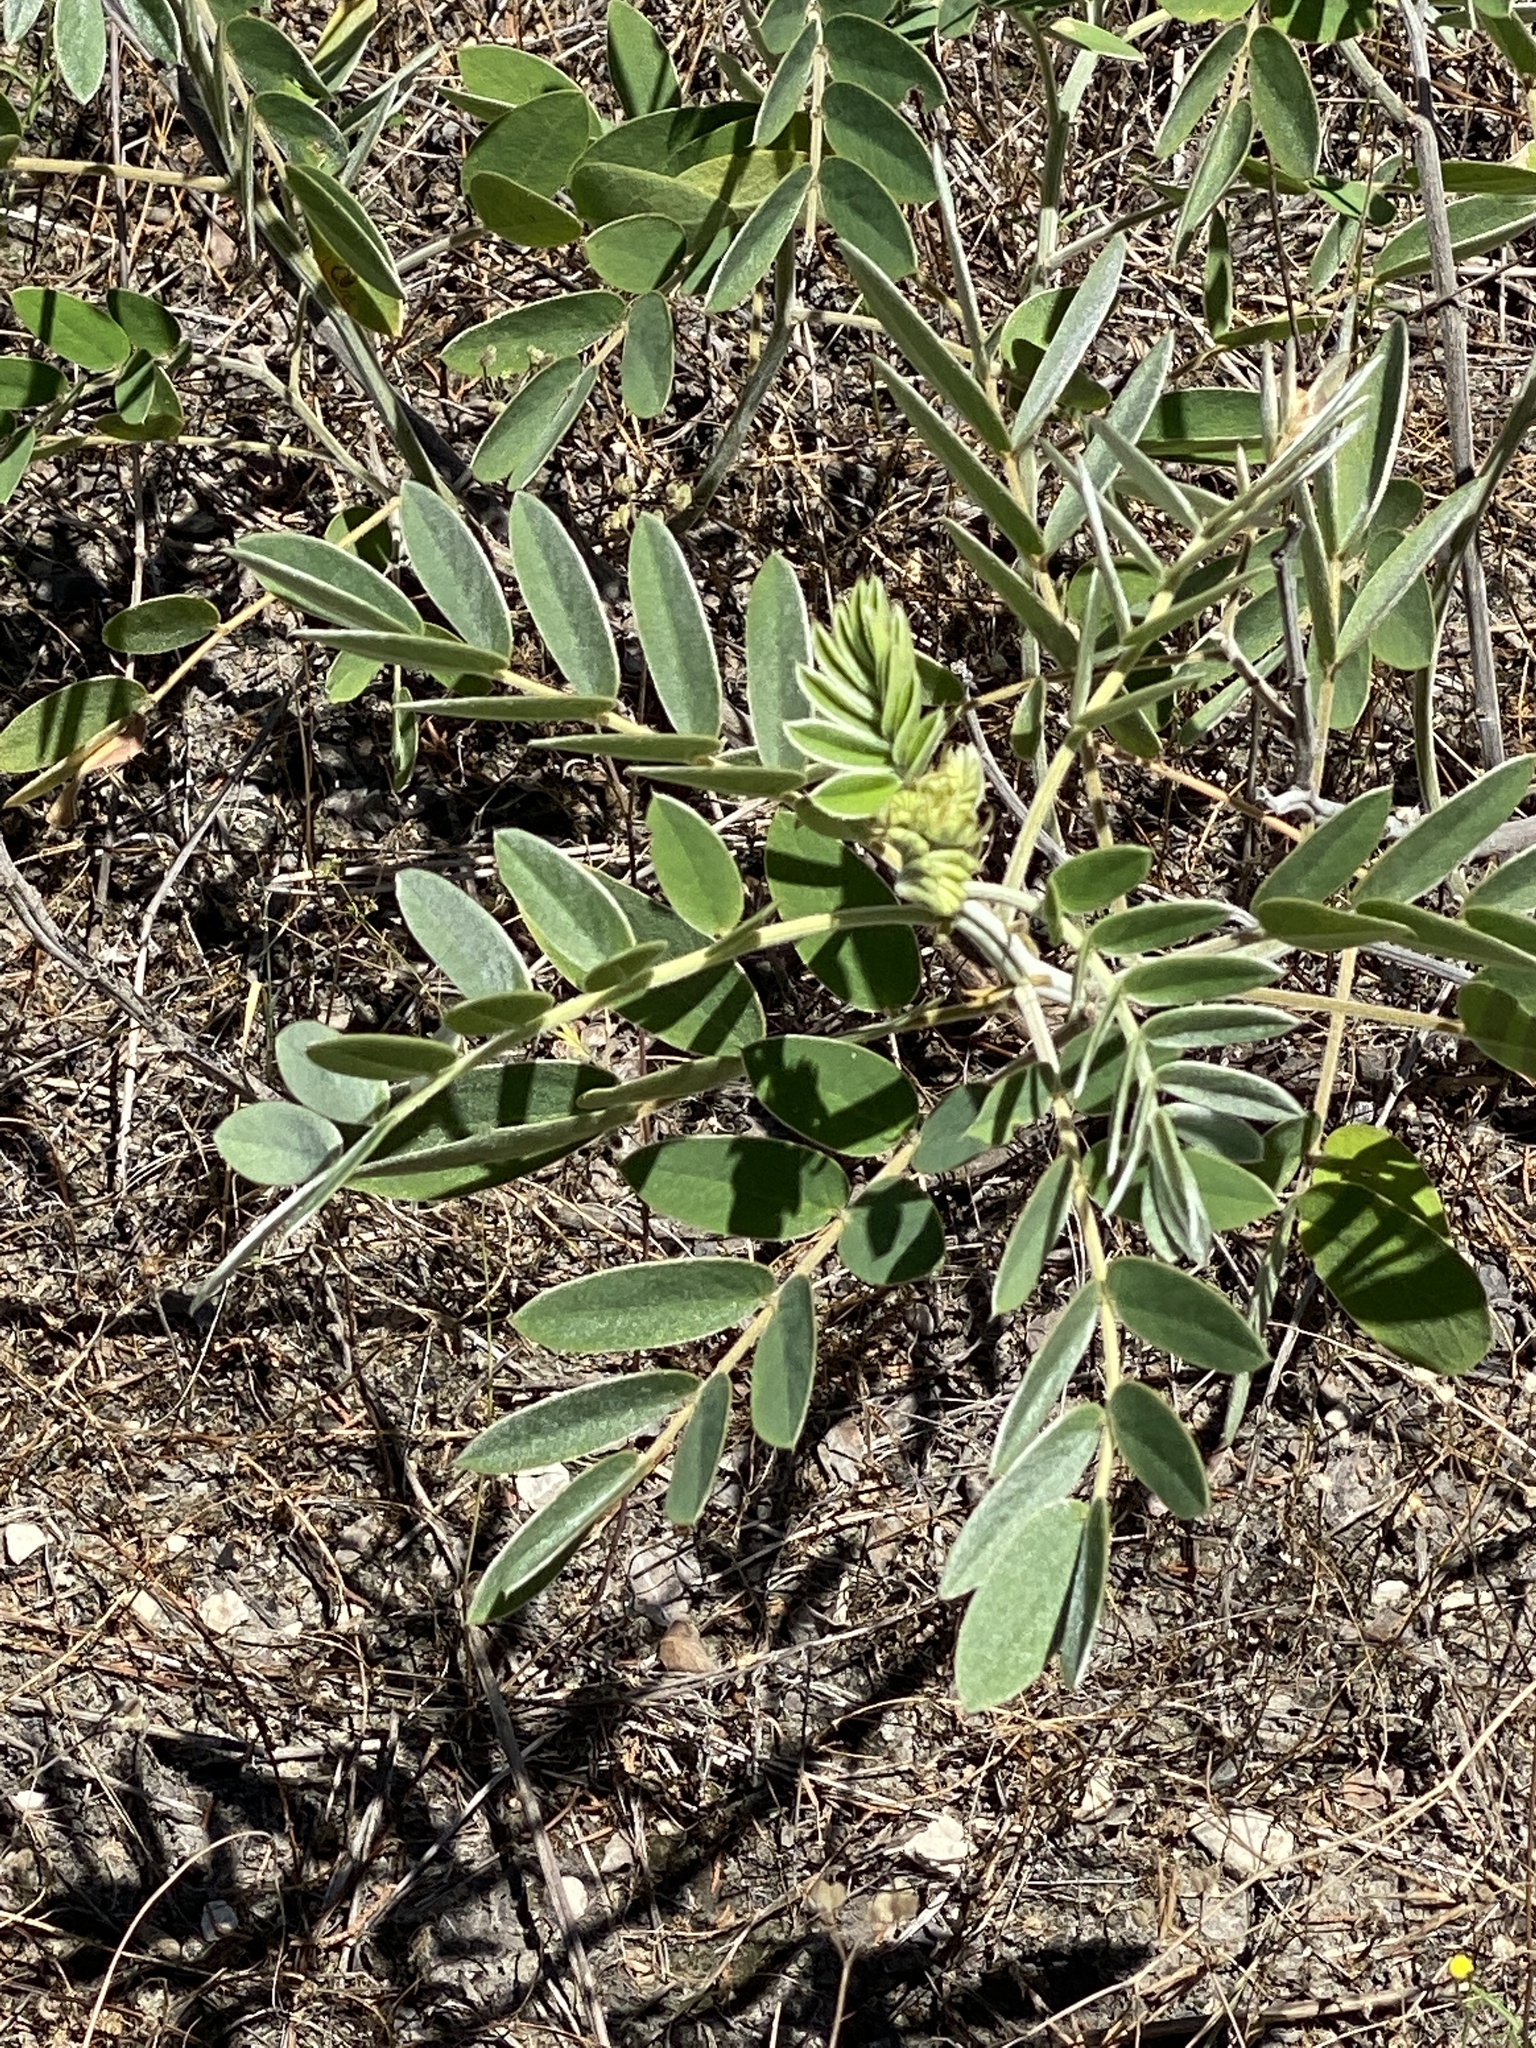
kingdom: Plantae
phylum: Tracheophyta
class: Magnoliopsida
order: Fabales
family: Fabaceae
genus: Senna
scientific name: Senna lindheimeriana
